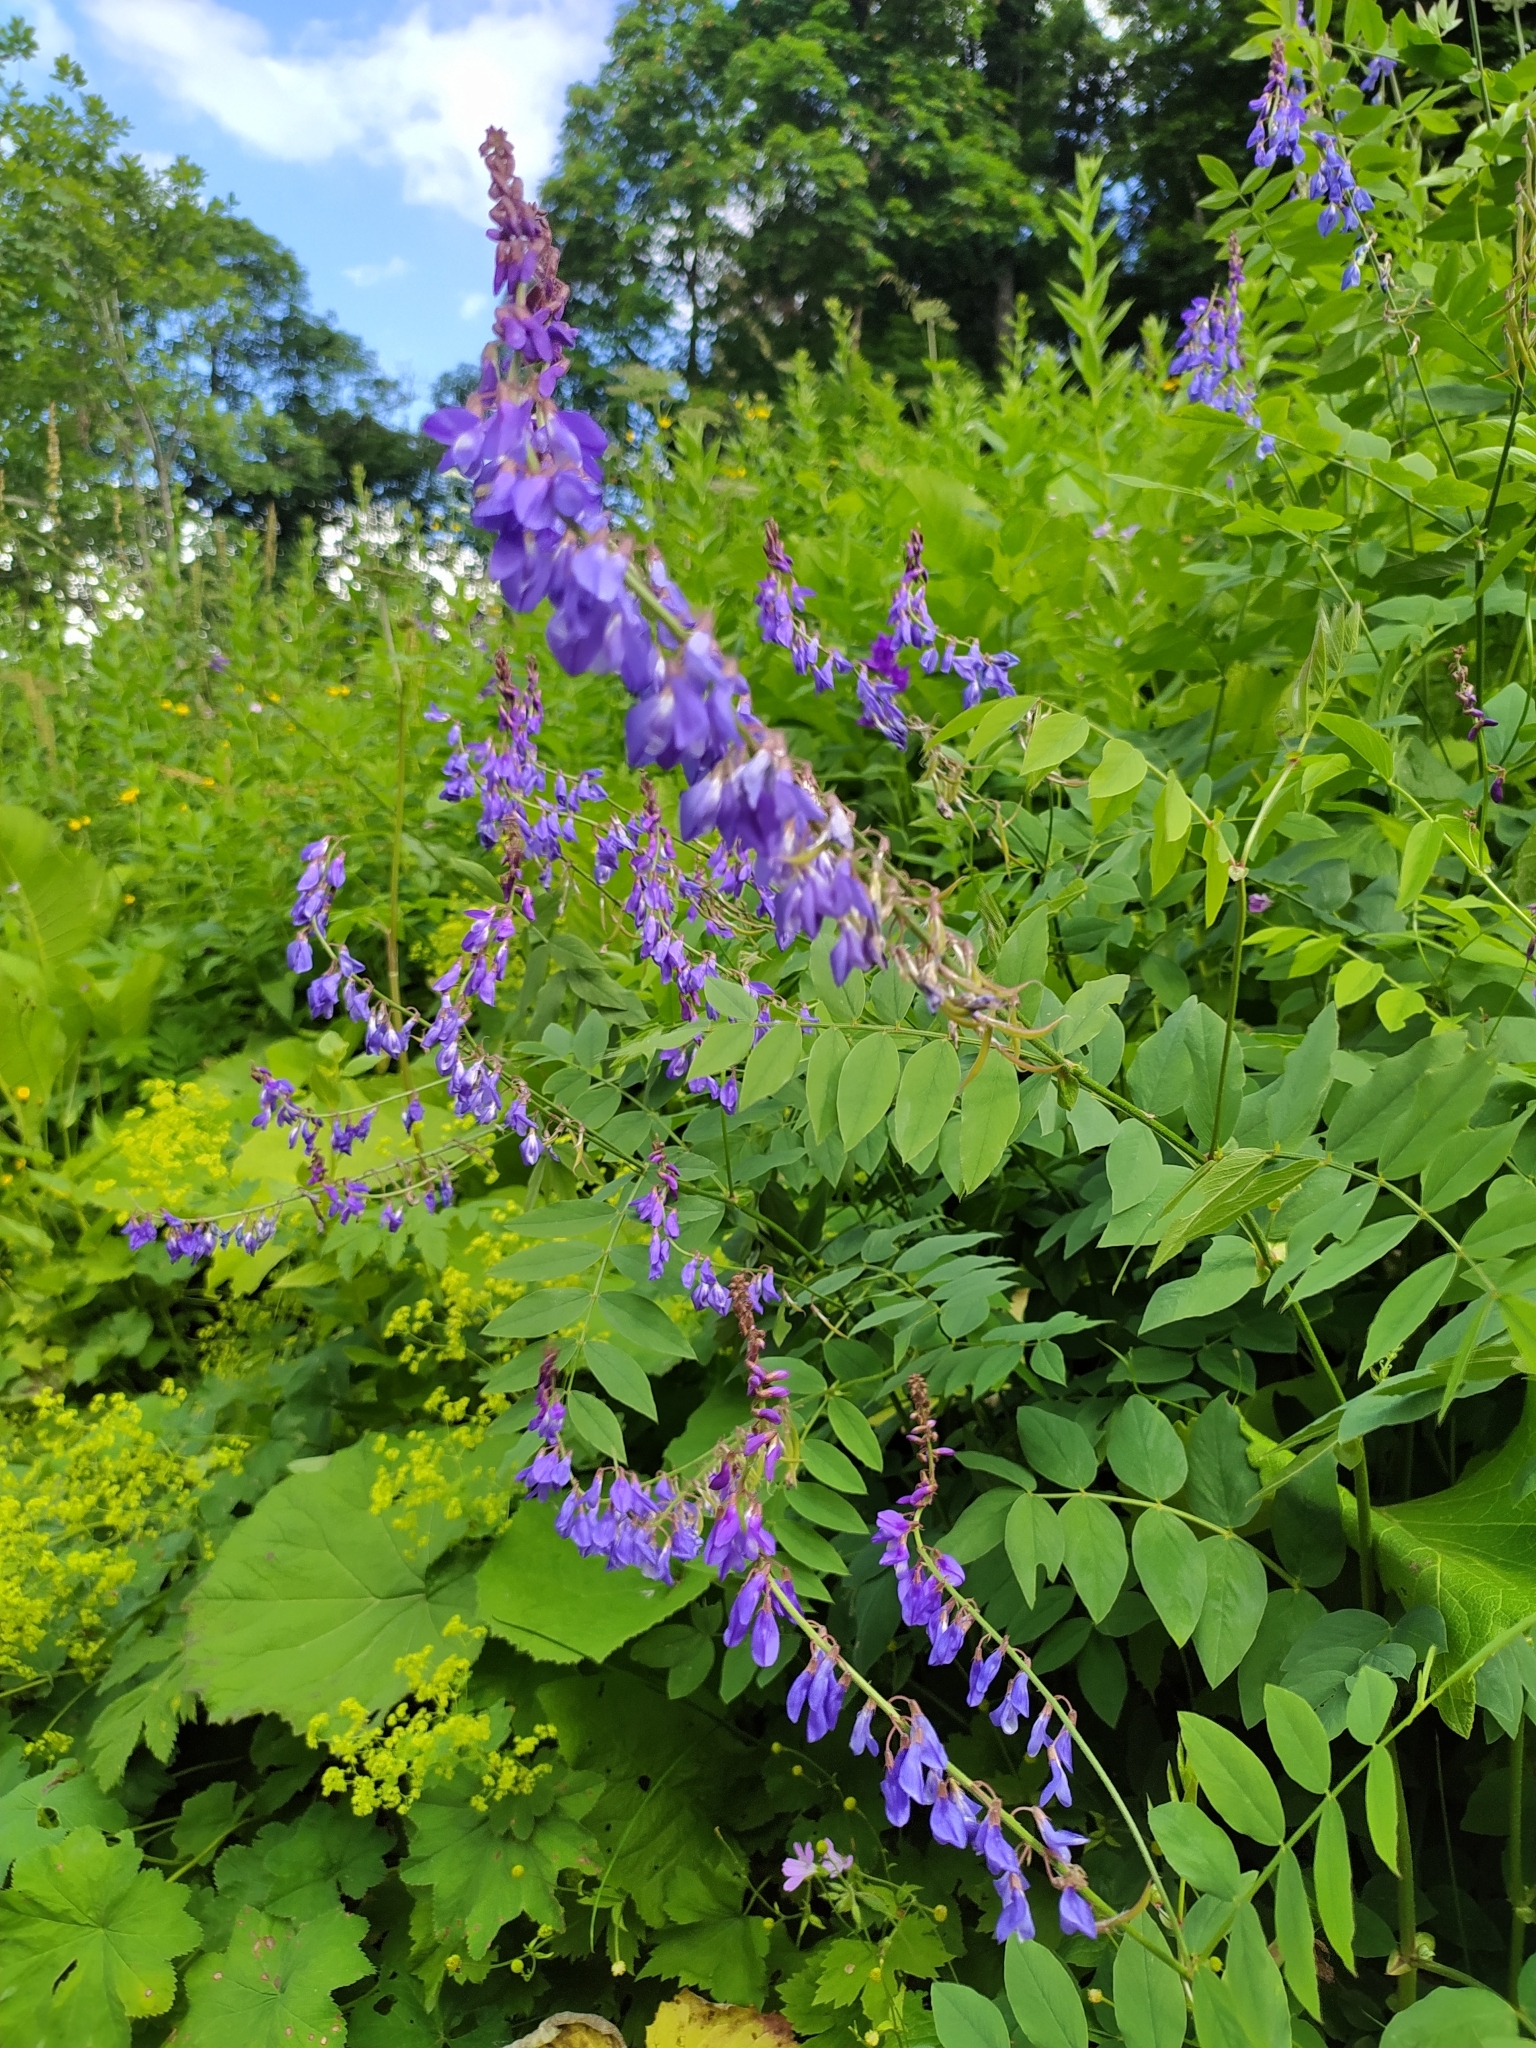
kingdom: Plantae
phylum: Tracheophyta
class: Magnoliopsida
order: Fabales
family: Fabaceae
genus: Galega
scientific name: Galega orientalis
